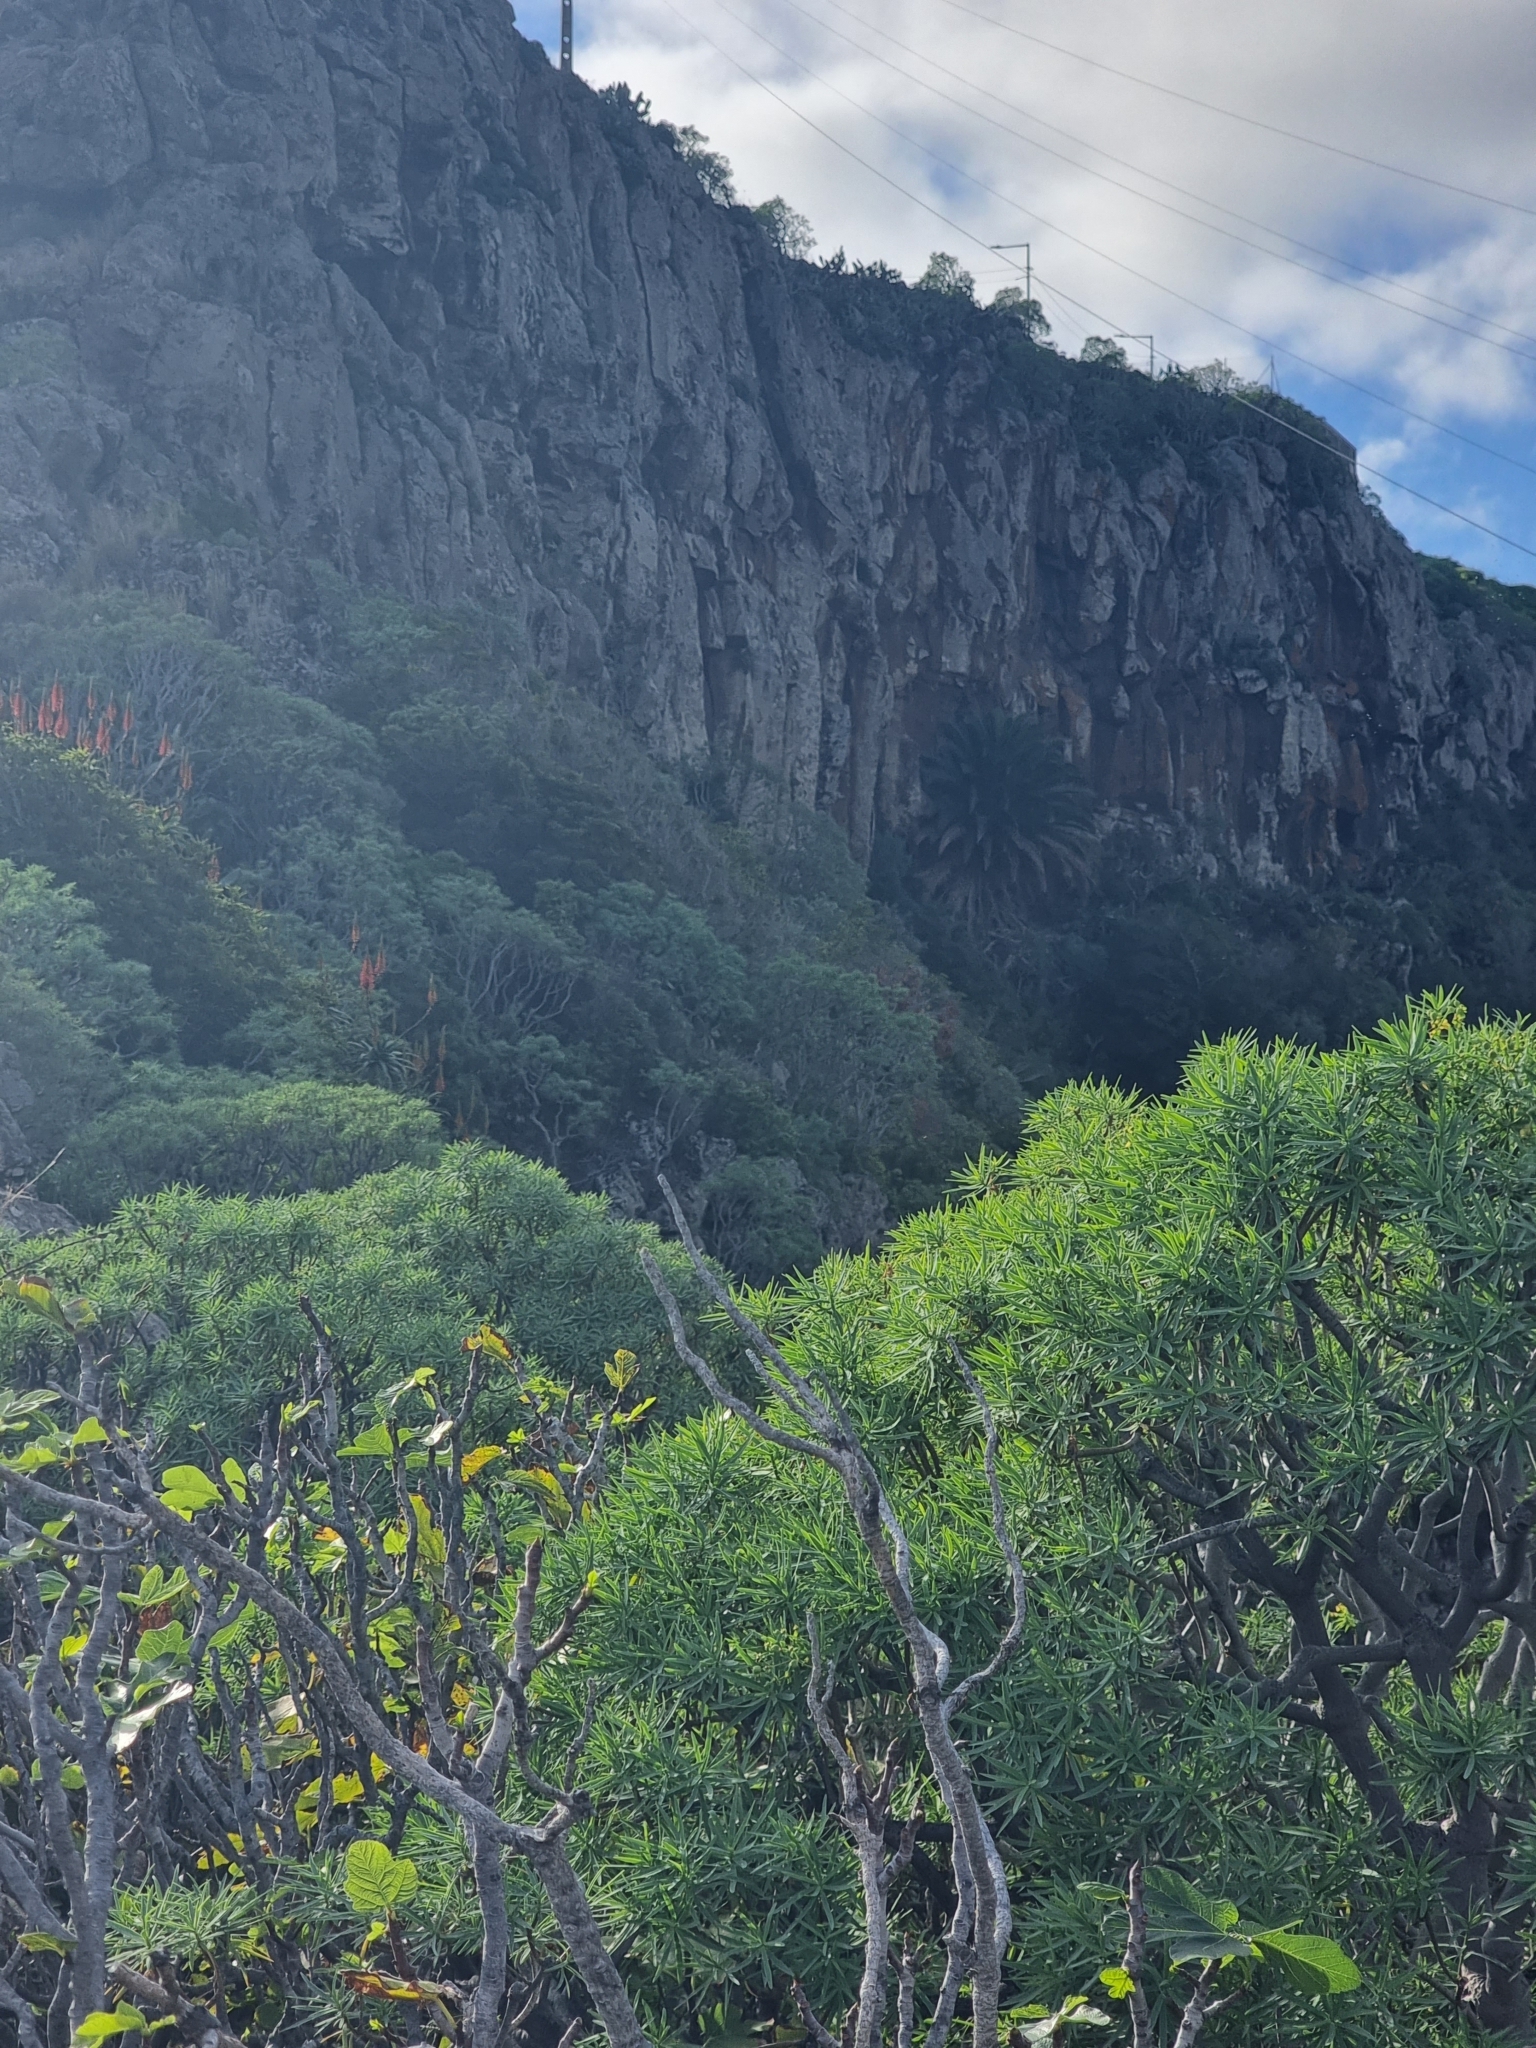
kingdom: Plantae
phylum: Tracheophyta
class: Liliopsida
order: Arecales
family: Arecaceae
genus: Phoenix
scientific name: Phoenix canariensis
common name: Canary island date palm
